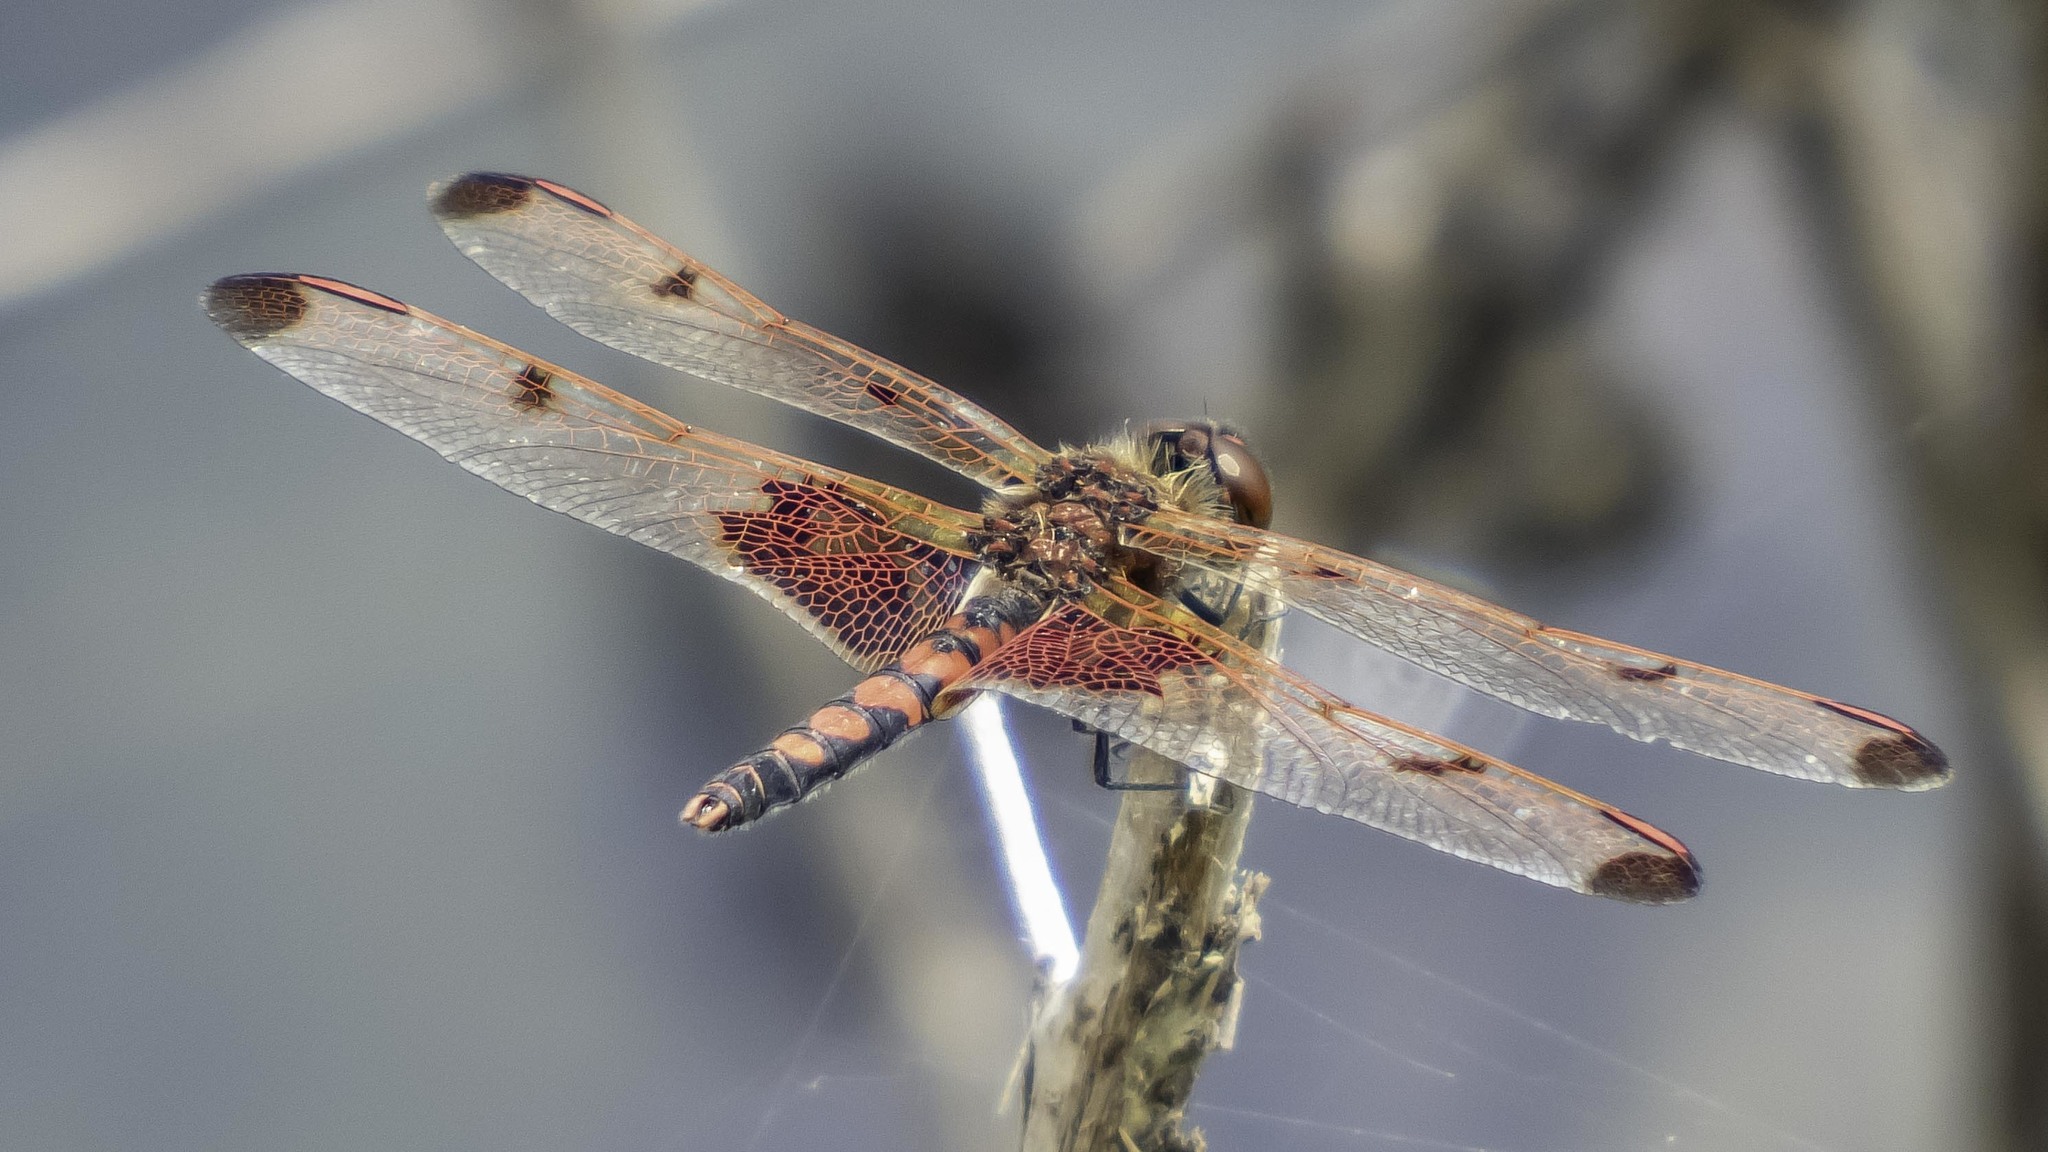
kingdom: Animalia
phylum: Arthropoda
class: Insecta
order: Odonata
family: Libellulidae
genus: Celithemis
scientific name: Celithemis elisa
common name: Calico pennant
